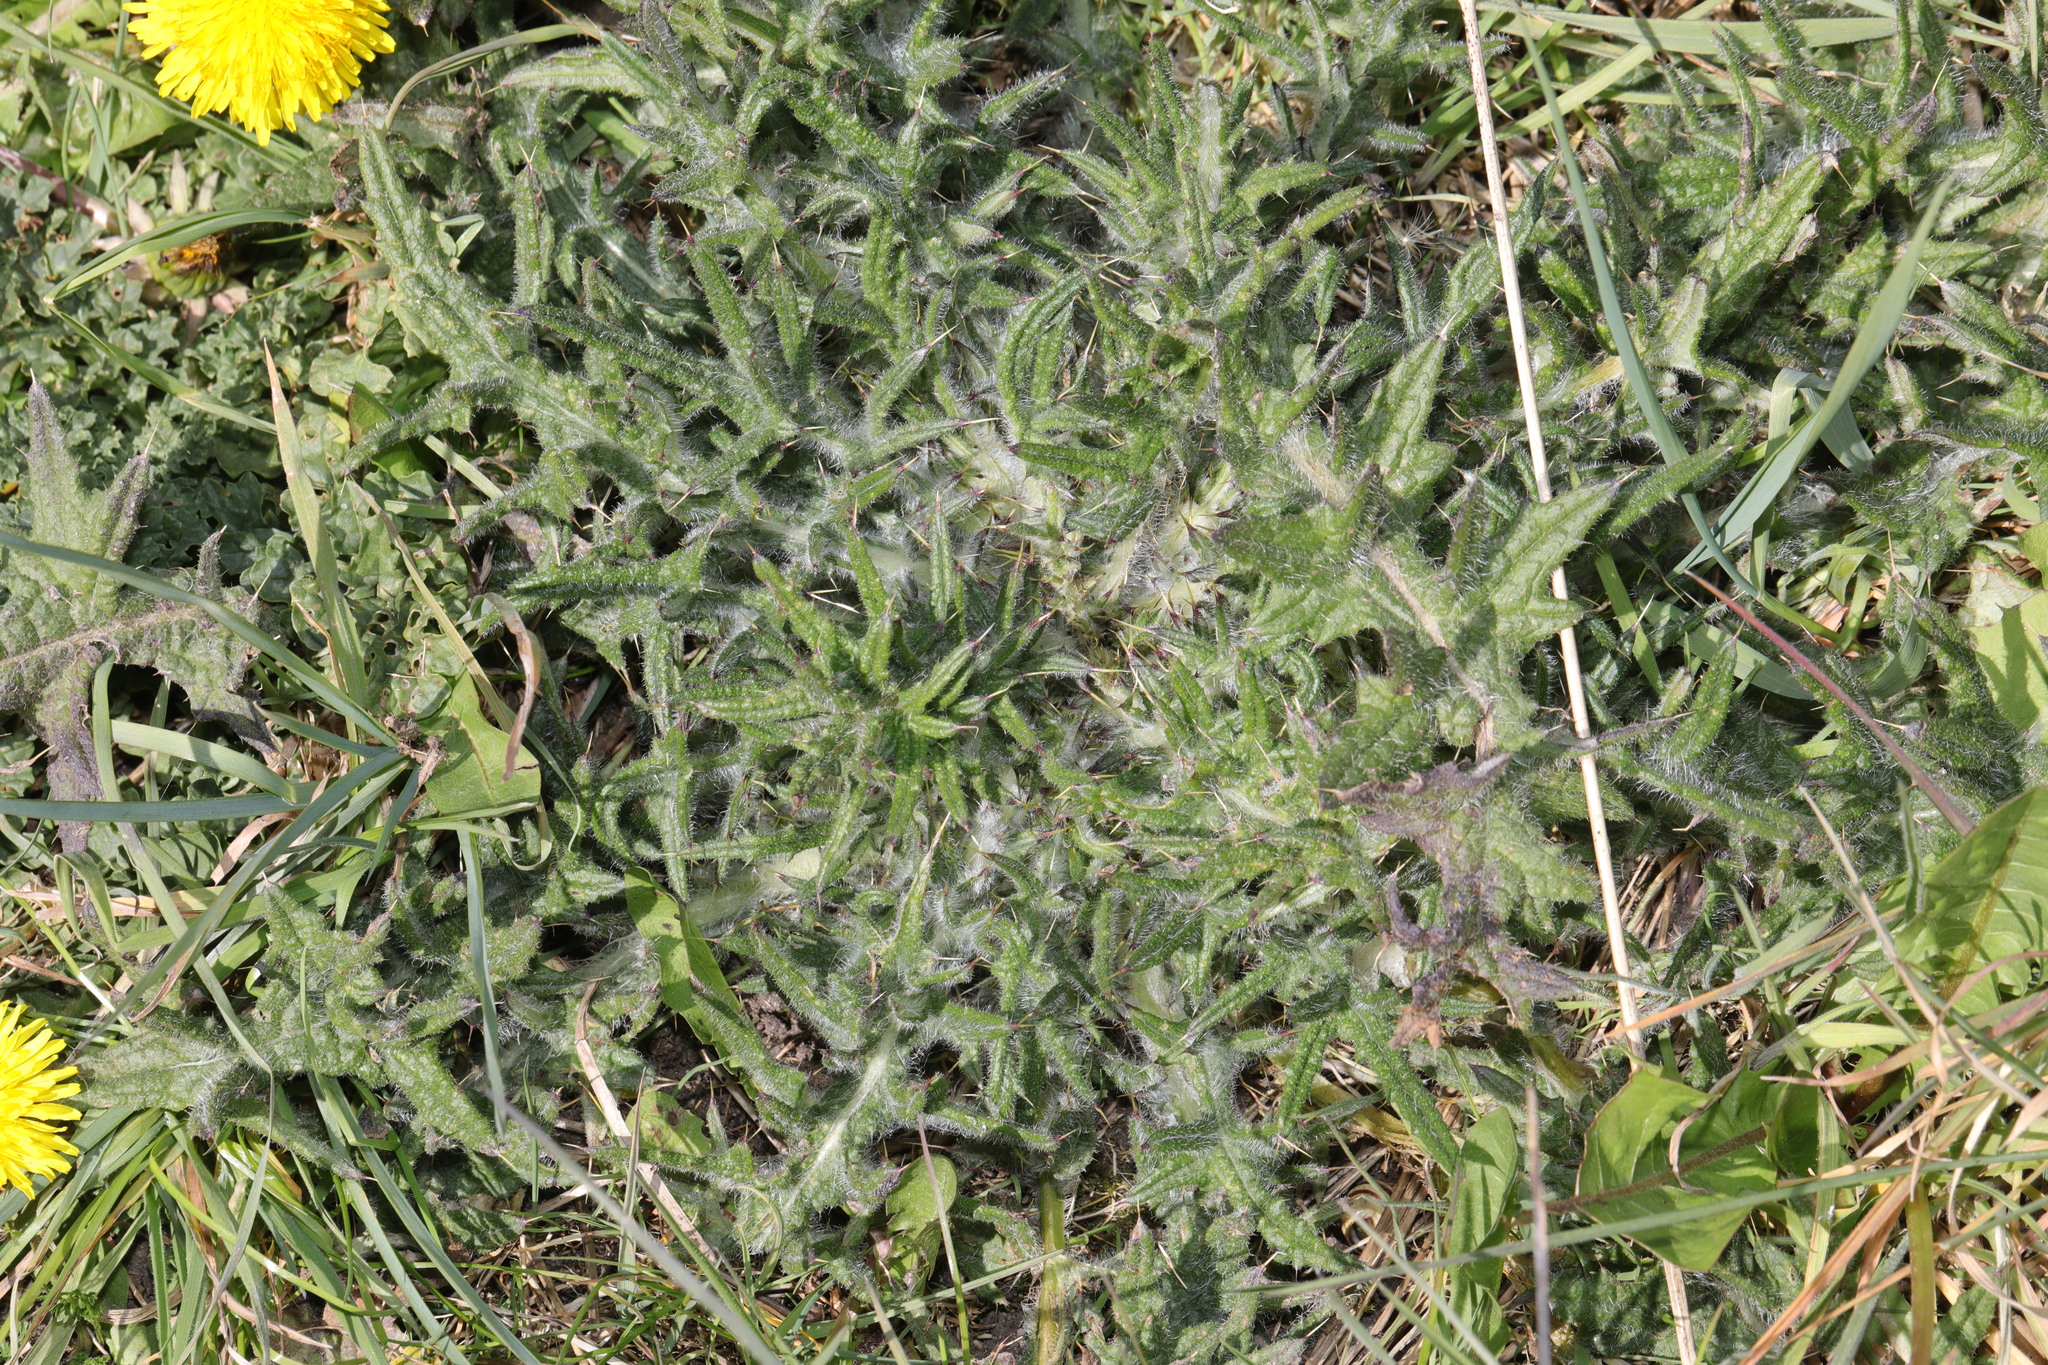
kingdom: Plantae
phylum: Tracheophyta
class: Magnoliopsida
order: Asterales
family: Asteraceae
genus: Cirsium
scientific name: Cirsium vulgare
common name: Bull thistle
